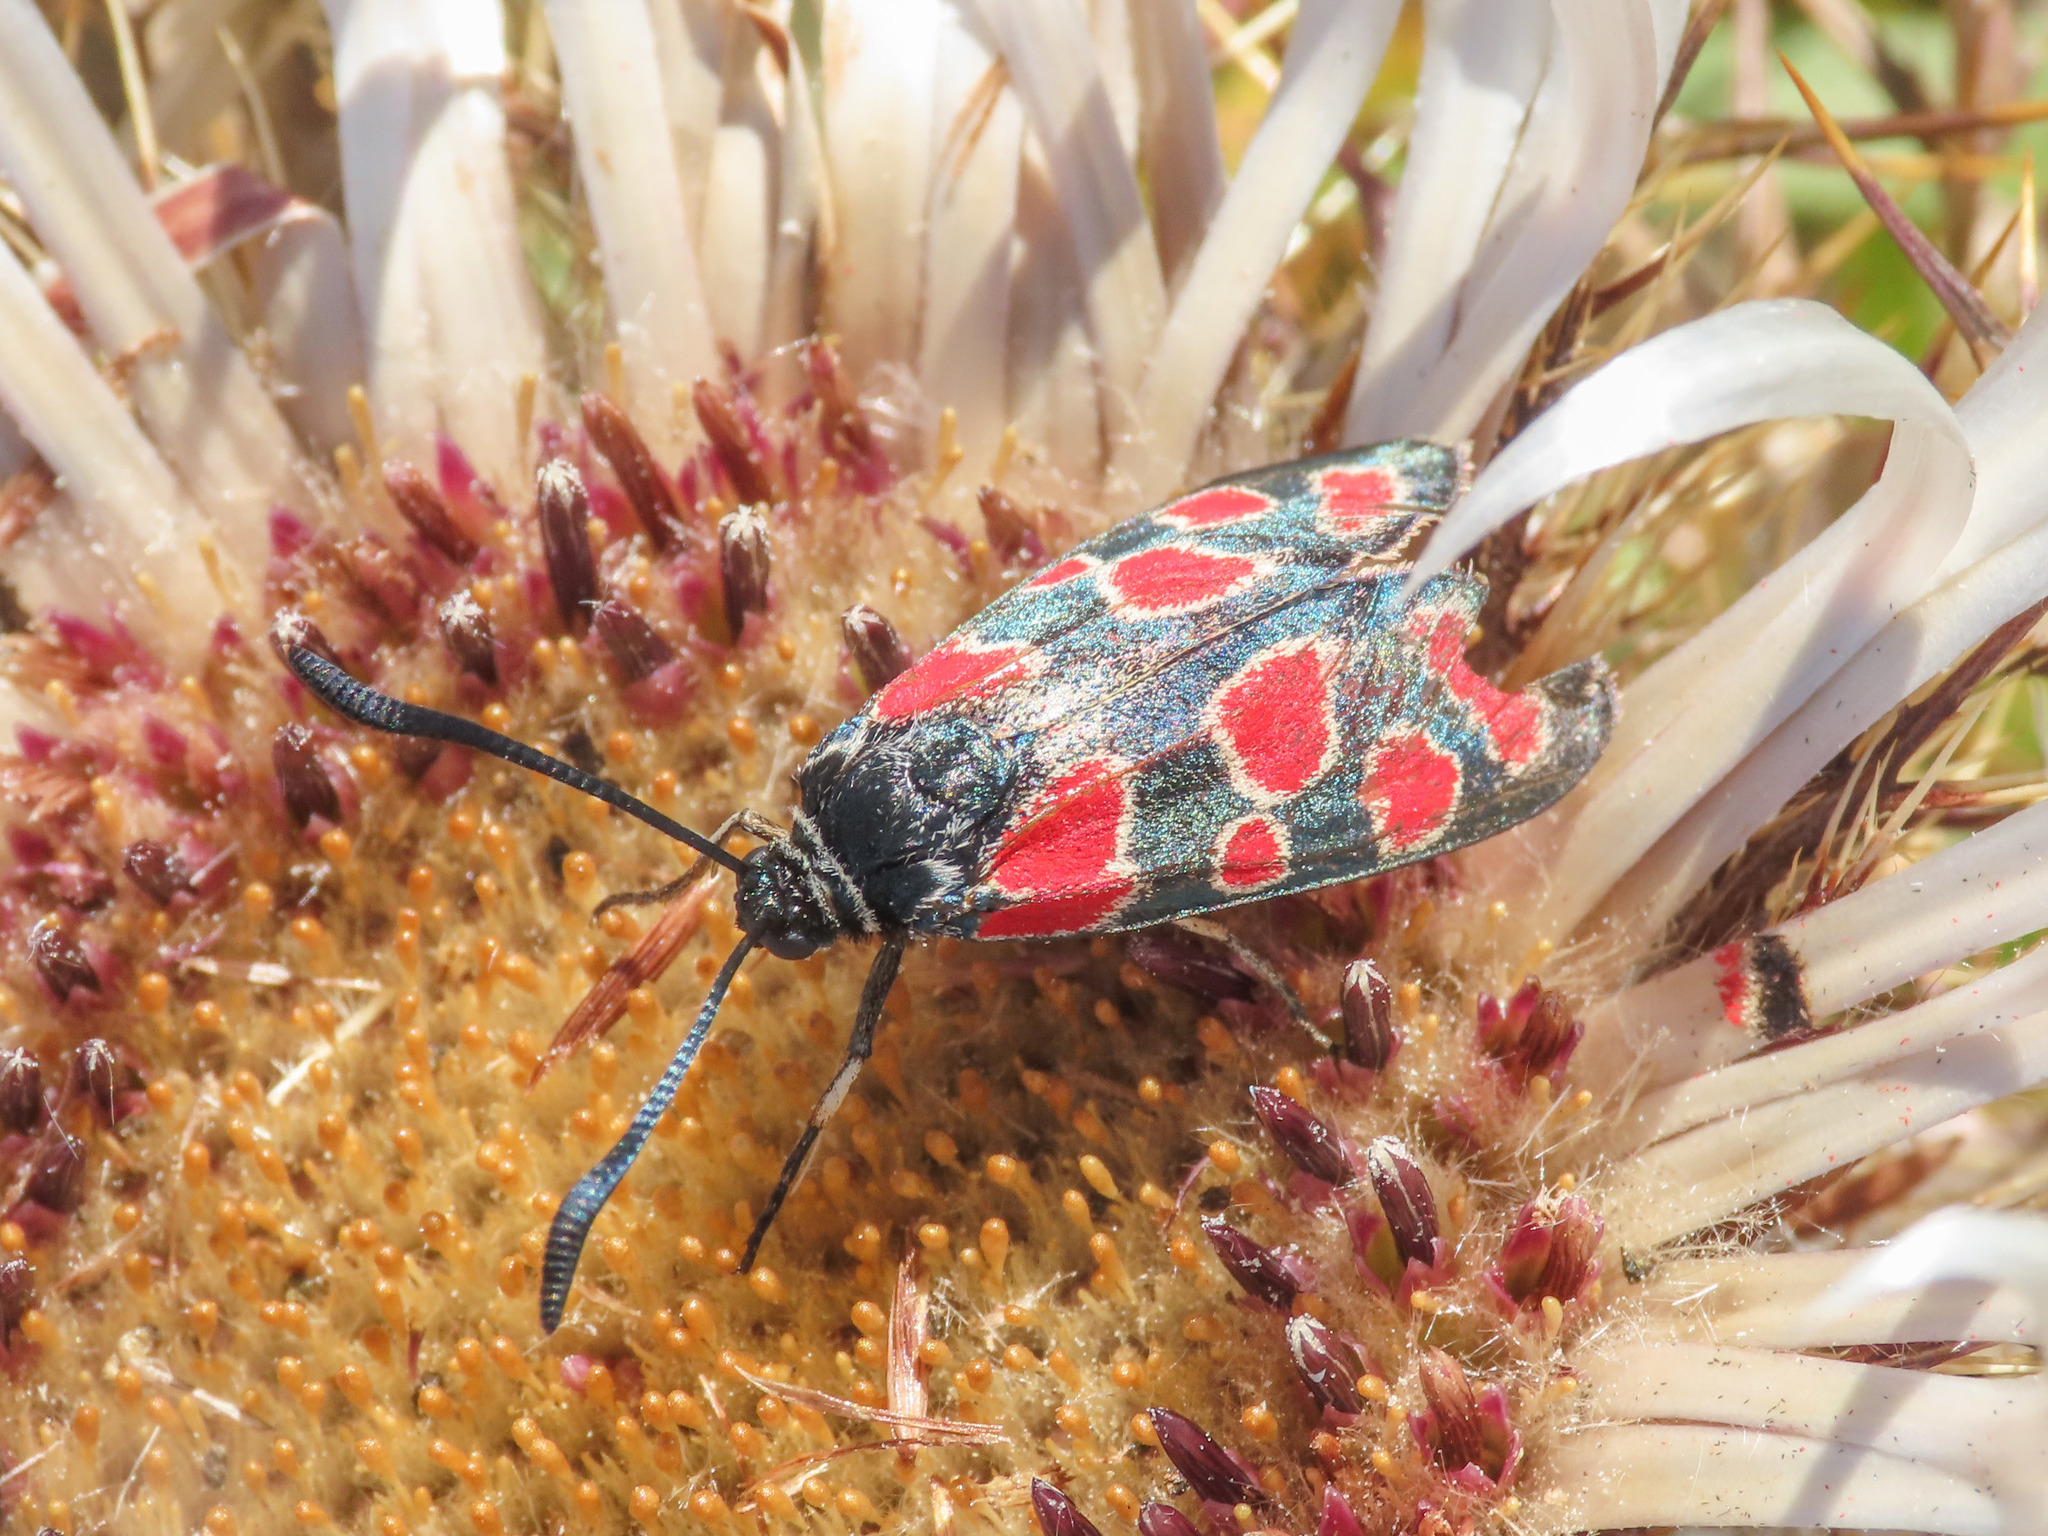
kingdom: Animalia
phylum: Arthropoda
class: Insecta
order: Lepidoptera
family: Zygaenidae
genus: Zygaena
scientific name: Zygaena carniolica
